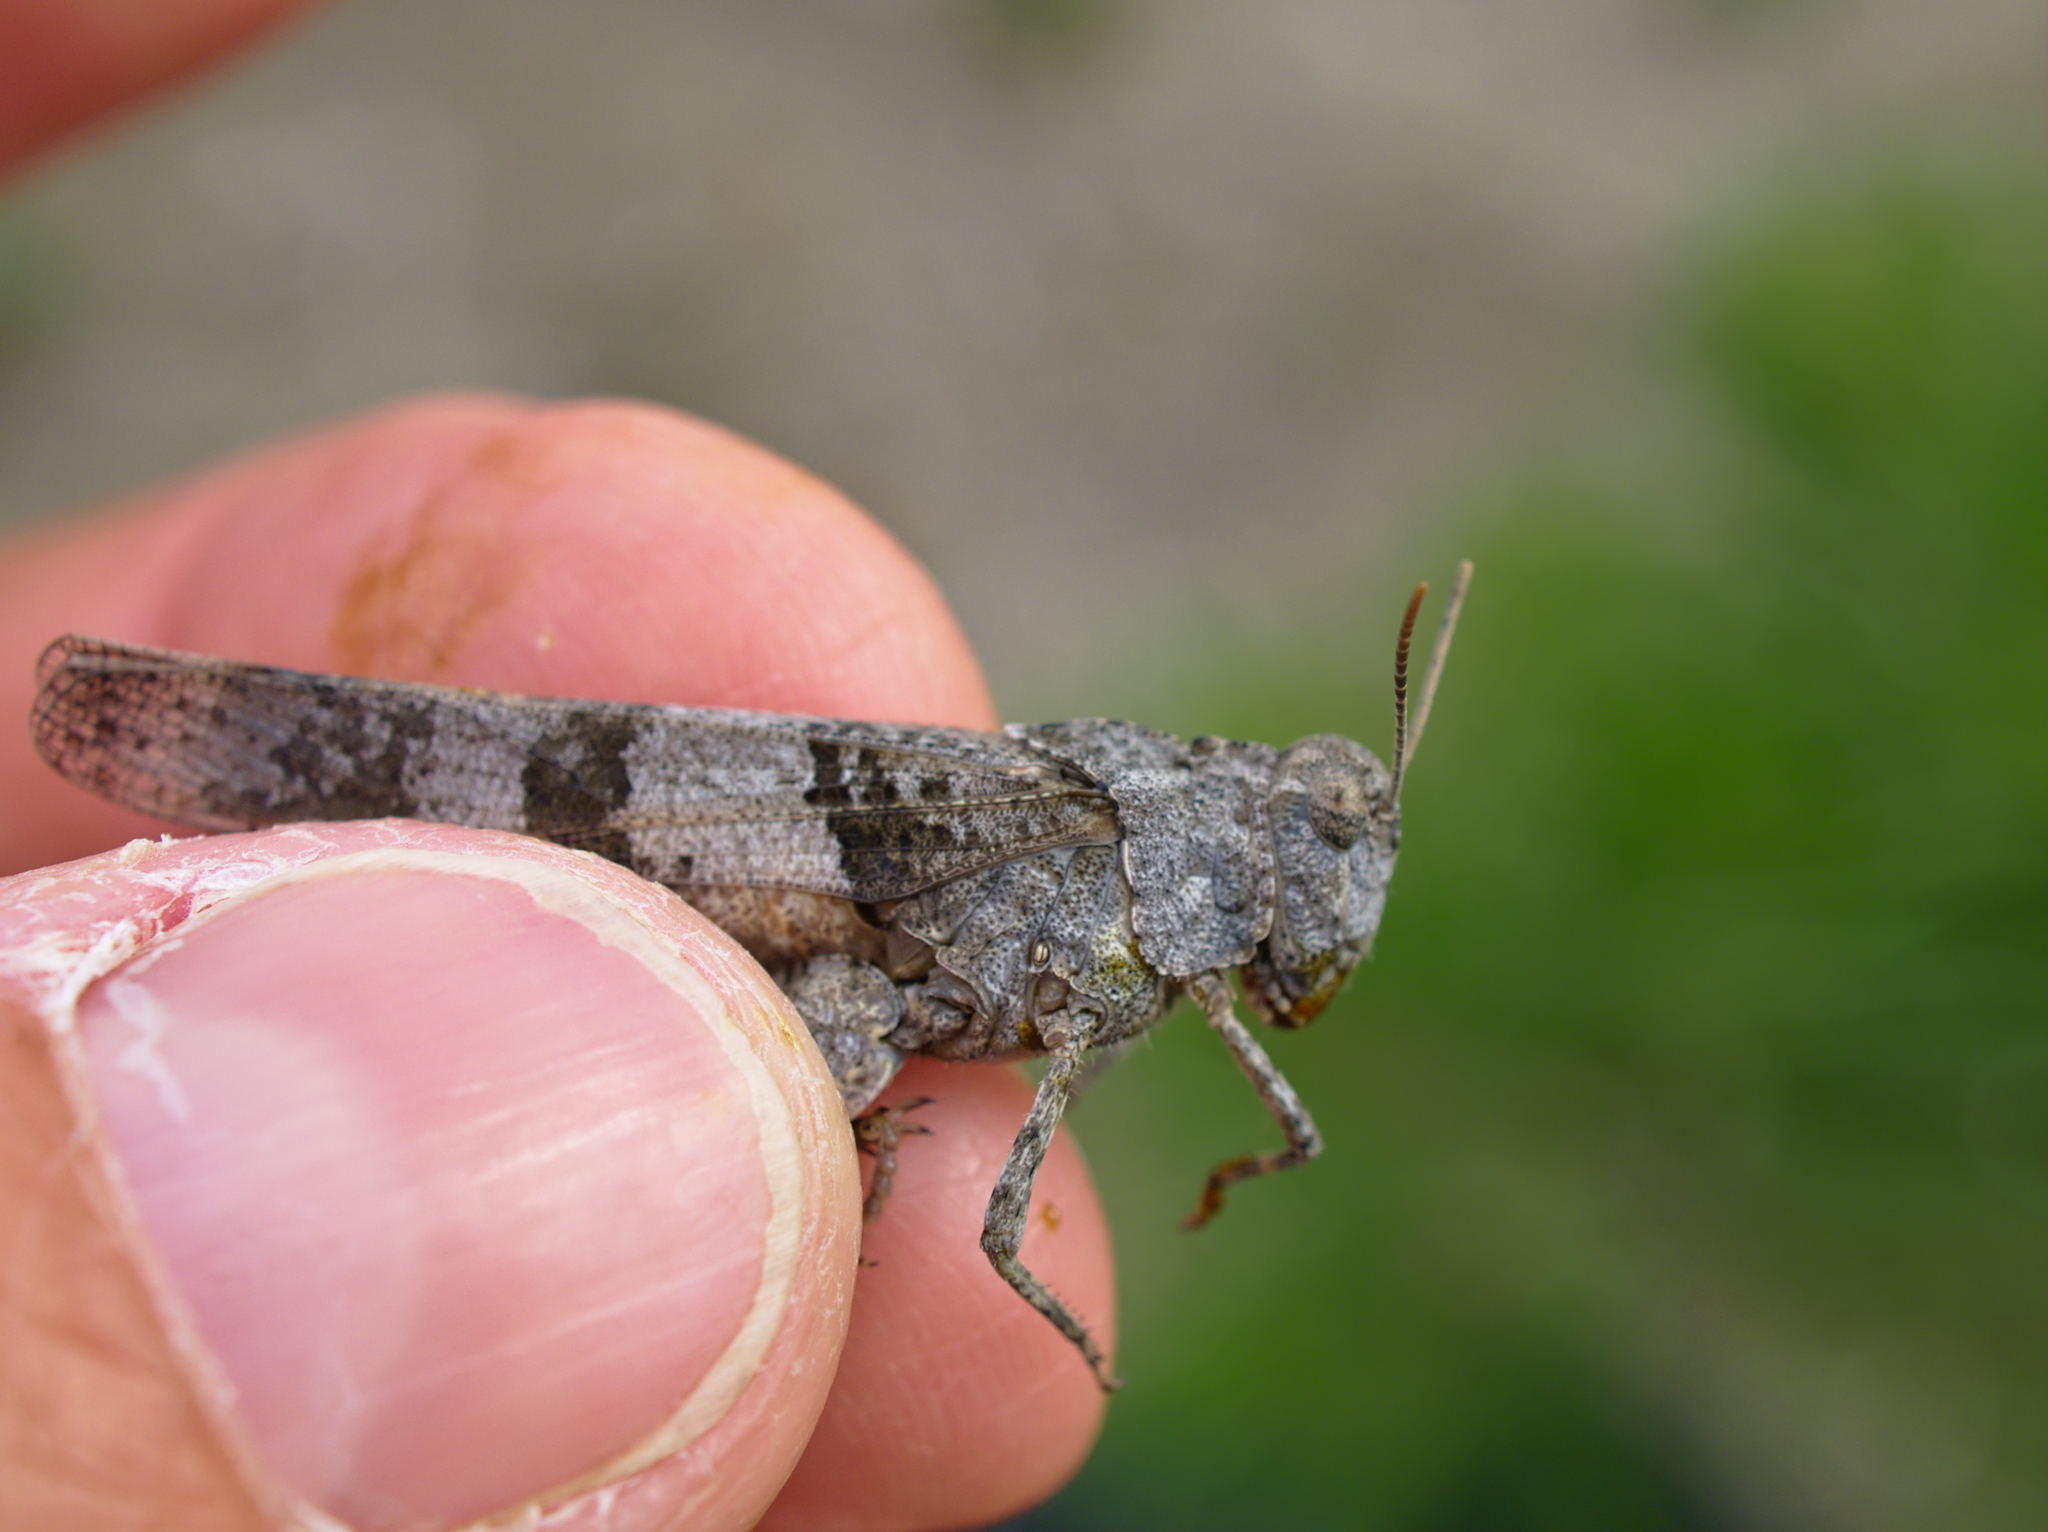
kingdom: Animalia
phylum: Arthropoda
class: Insecta
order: Orthoptera
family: Acrididae
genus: Oedipoda
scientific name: Oedipoda caerulescens
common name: Blue-winged grasshopper
